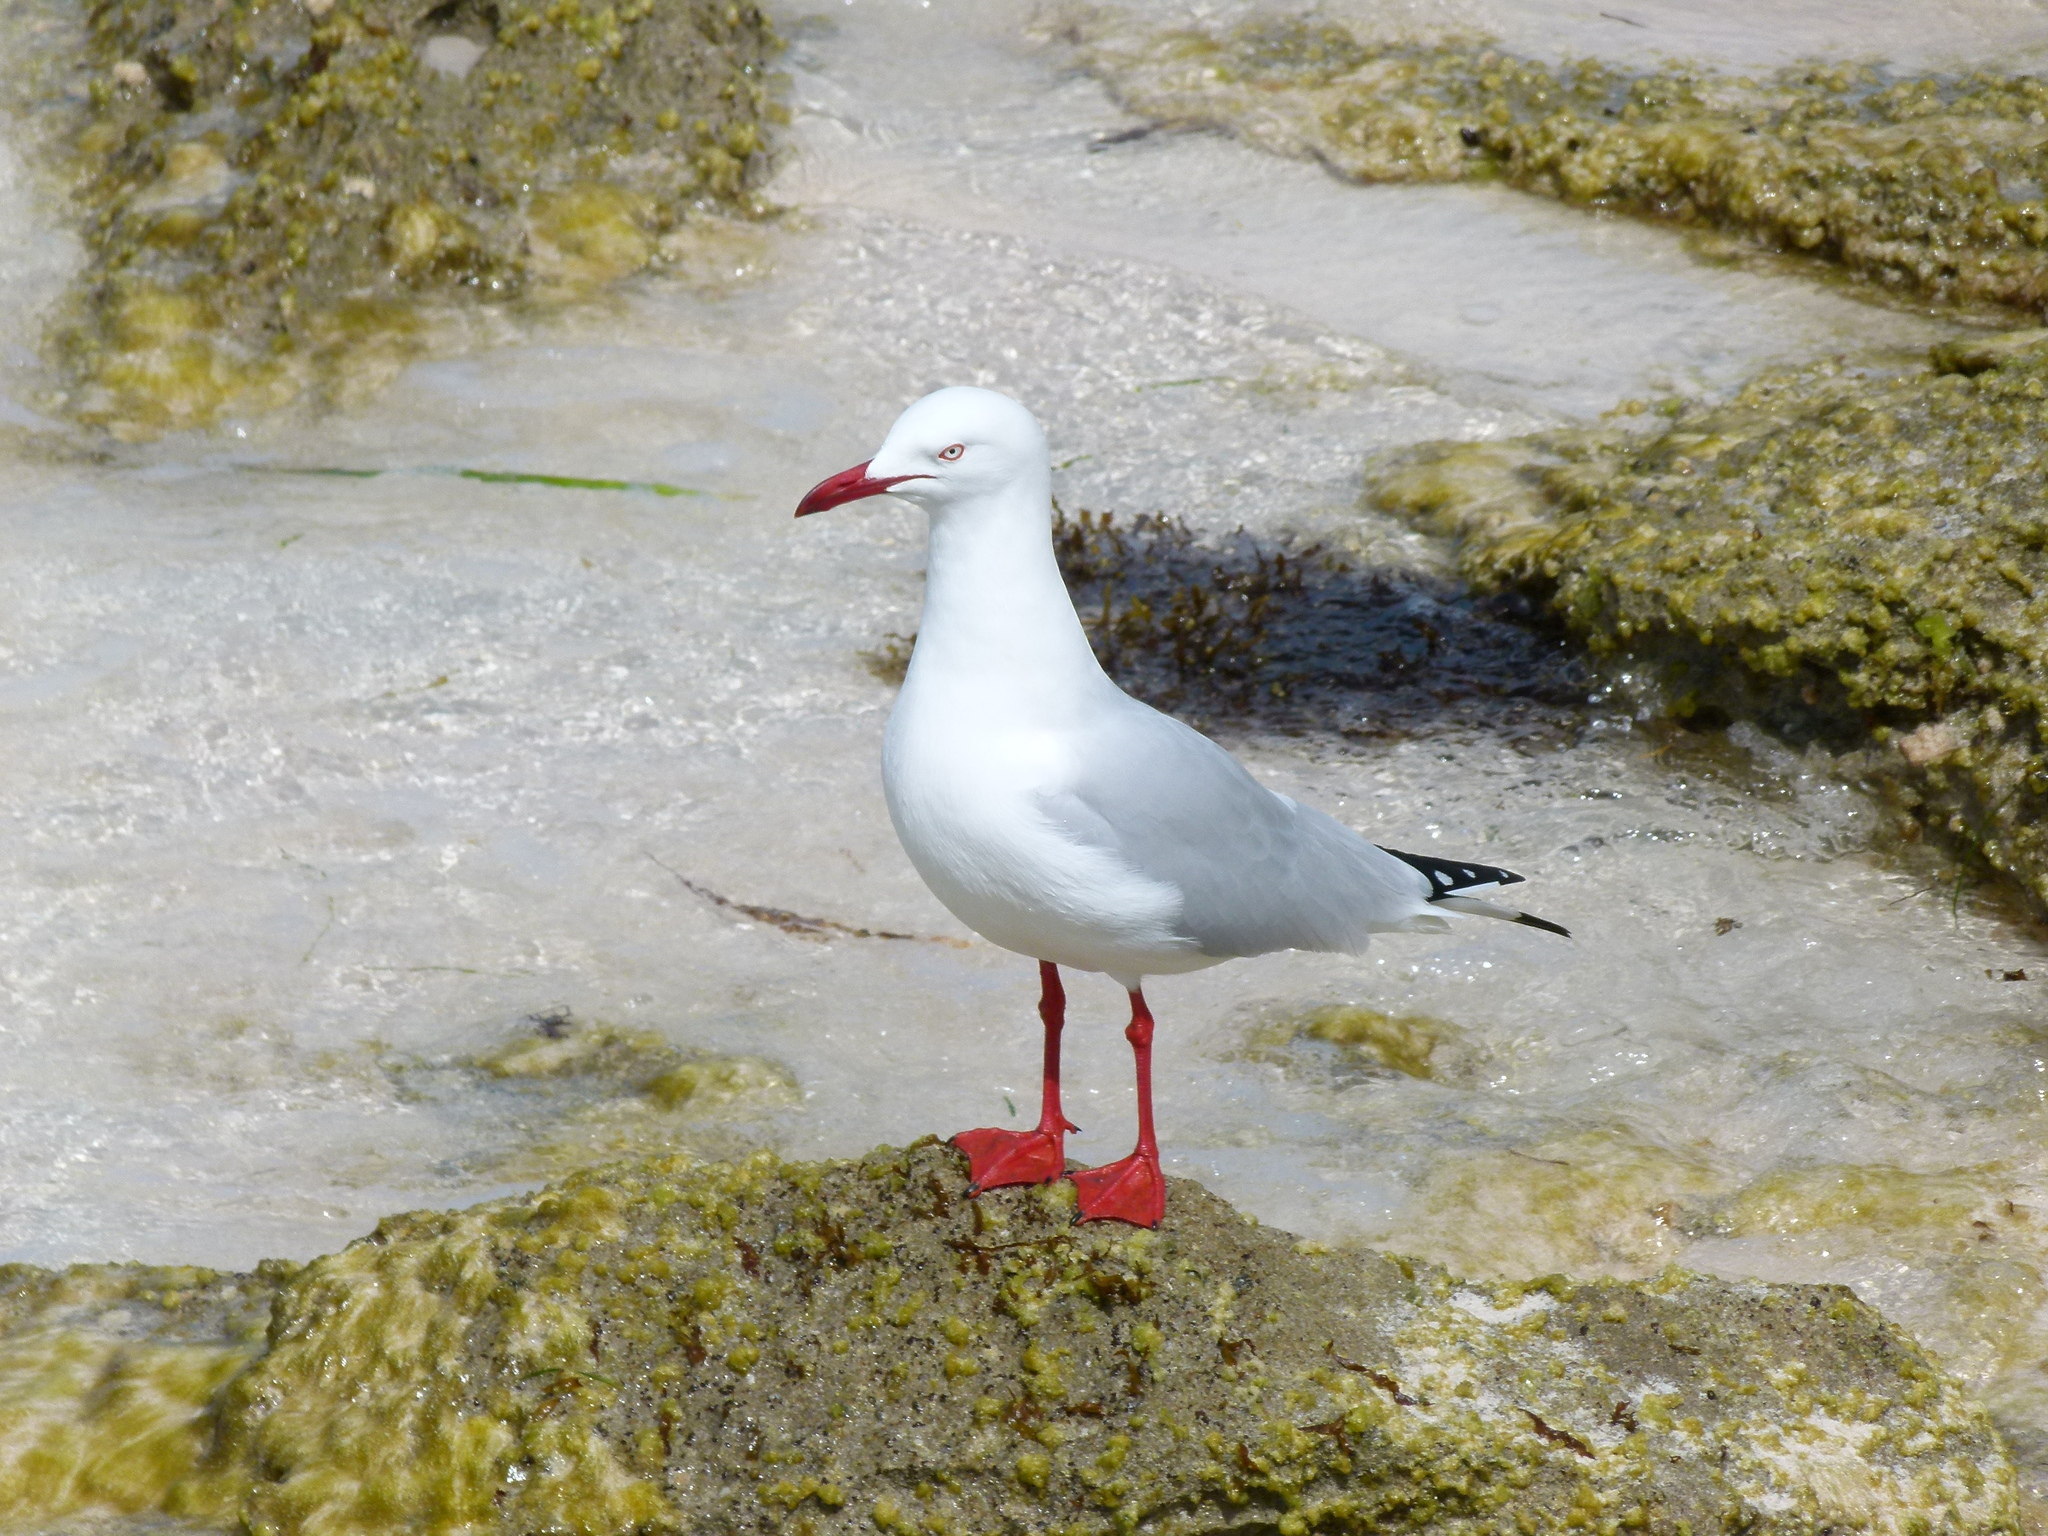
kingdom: Animalia
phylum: Chordata
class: Aves
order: Charadriiformes
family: Laridae
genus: Chroicocephalus
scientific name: Chroicocephalus novaehollandiae
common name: Silver gull
